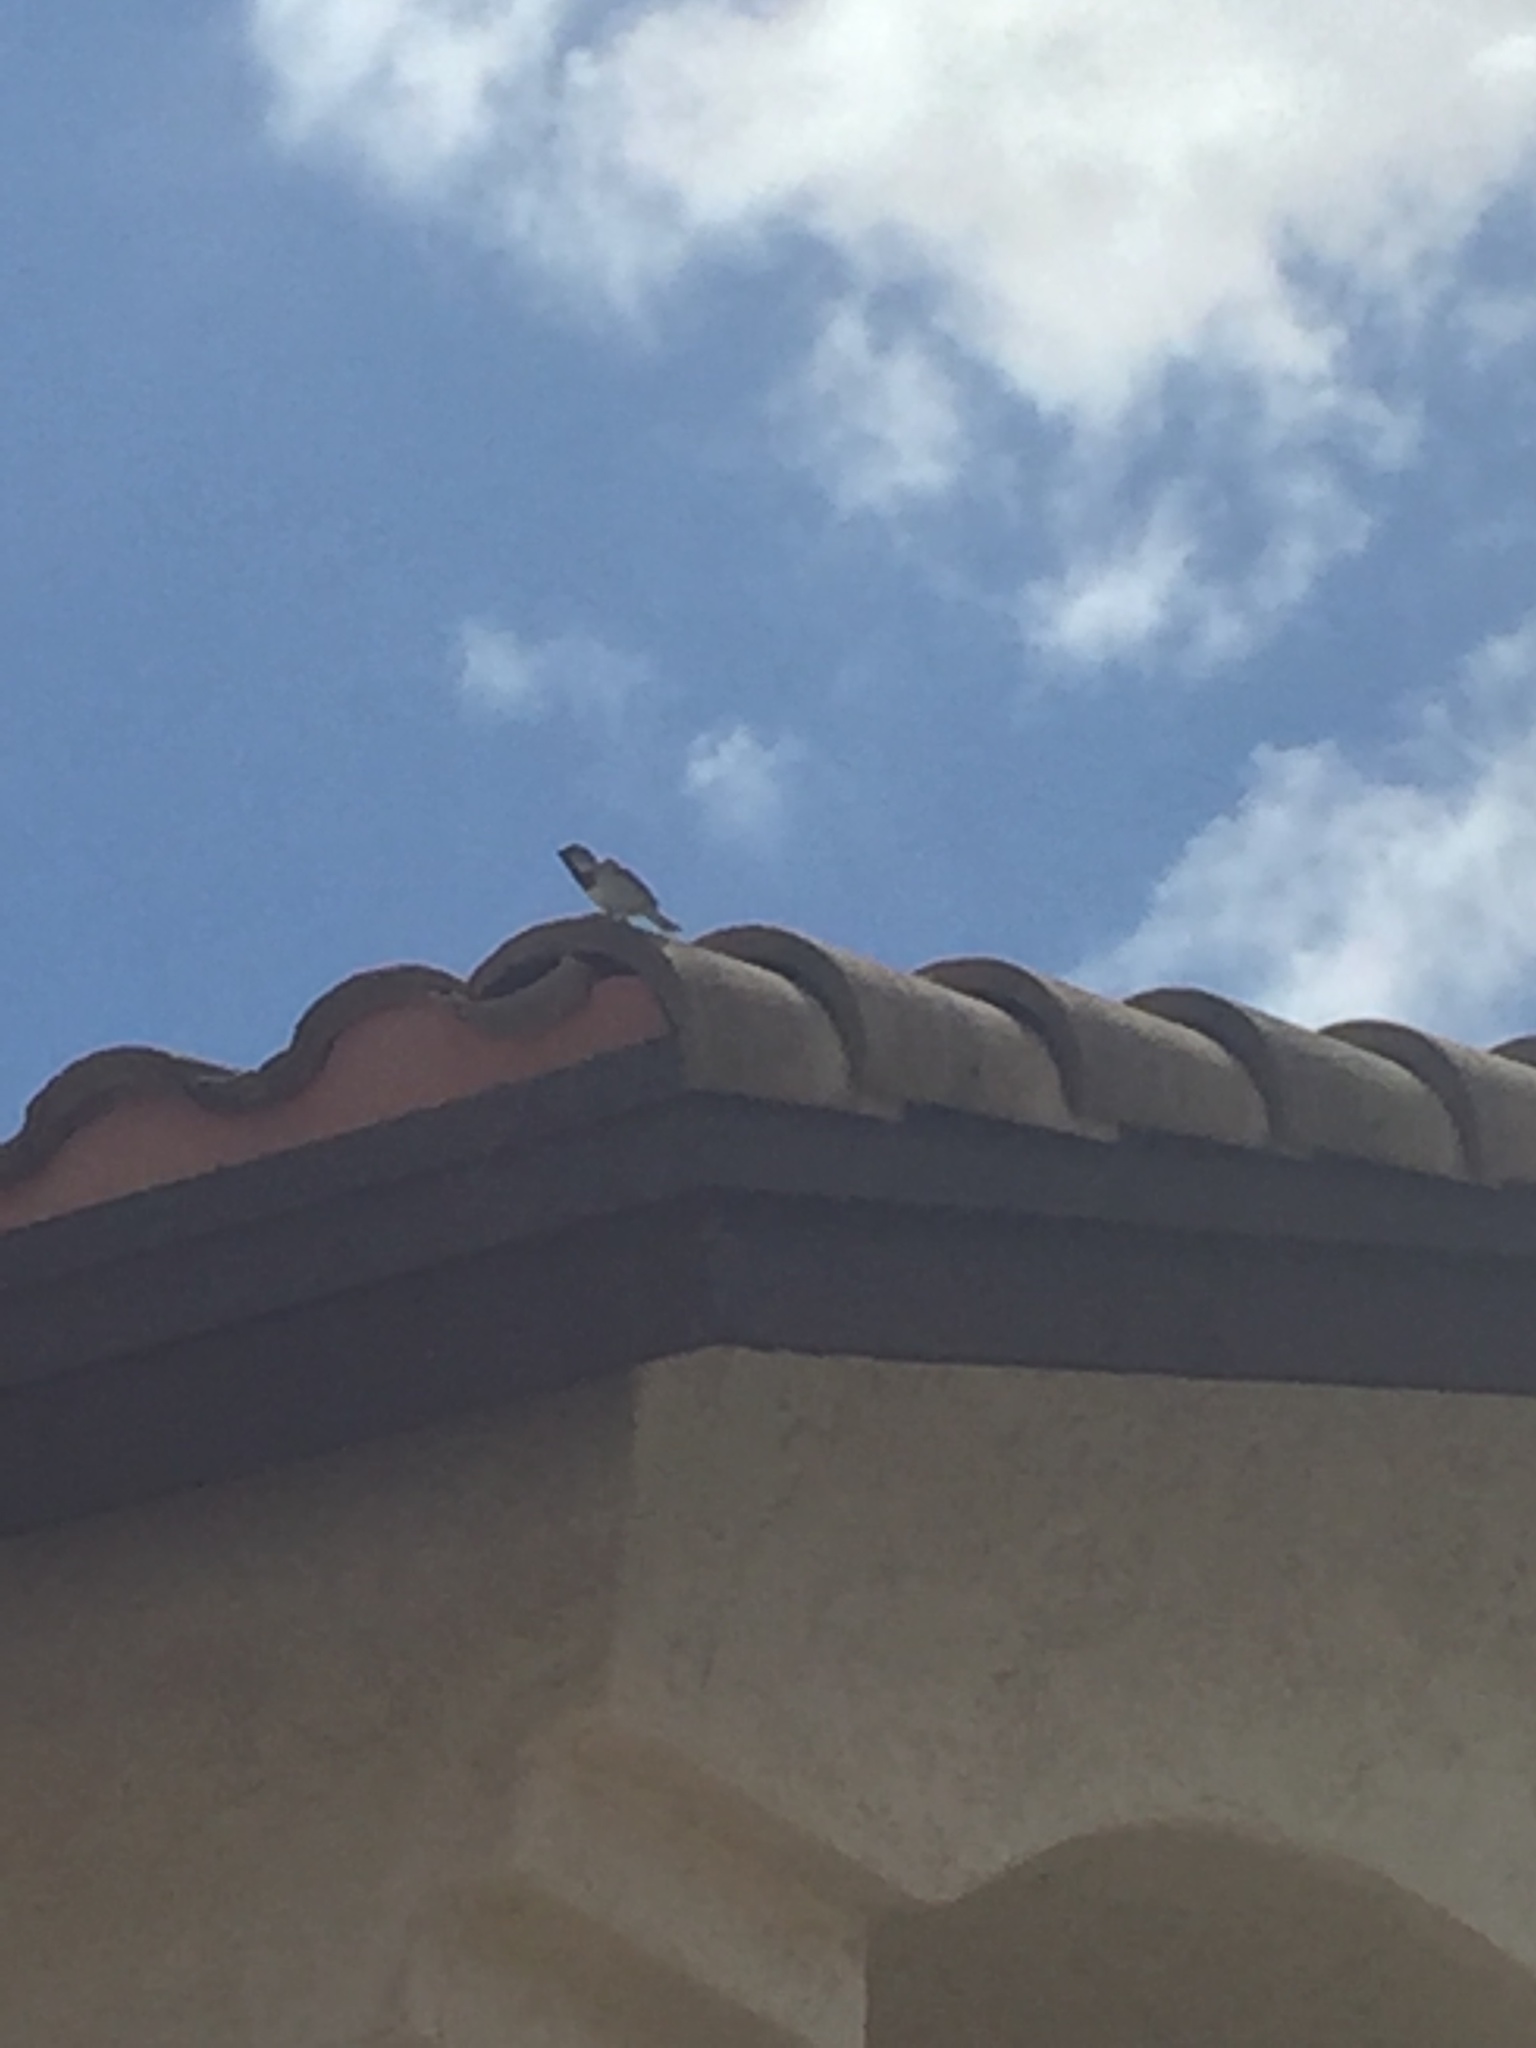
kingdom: Animalia
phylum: Chordata
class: Aves
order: Passeriformes
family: Passeridae
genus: Passer
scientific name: Passer domesticus
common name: House sparrow
